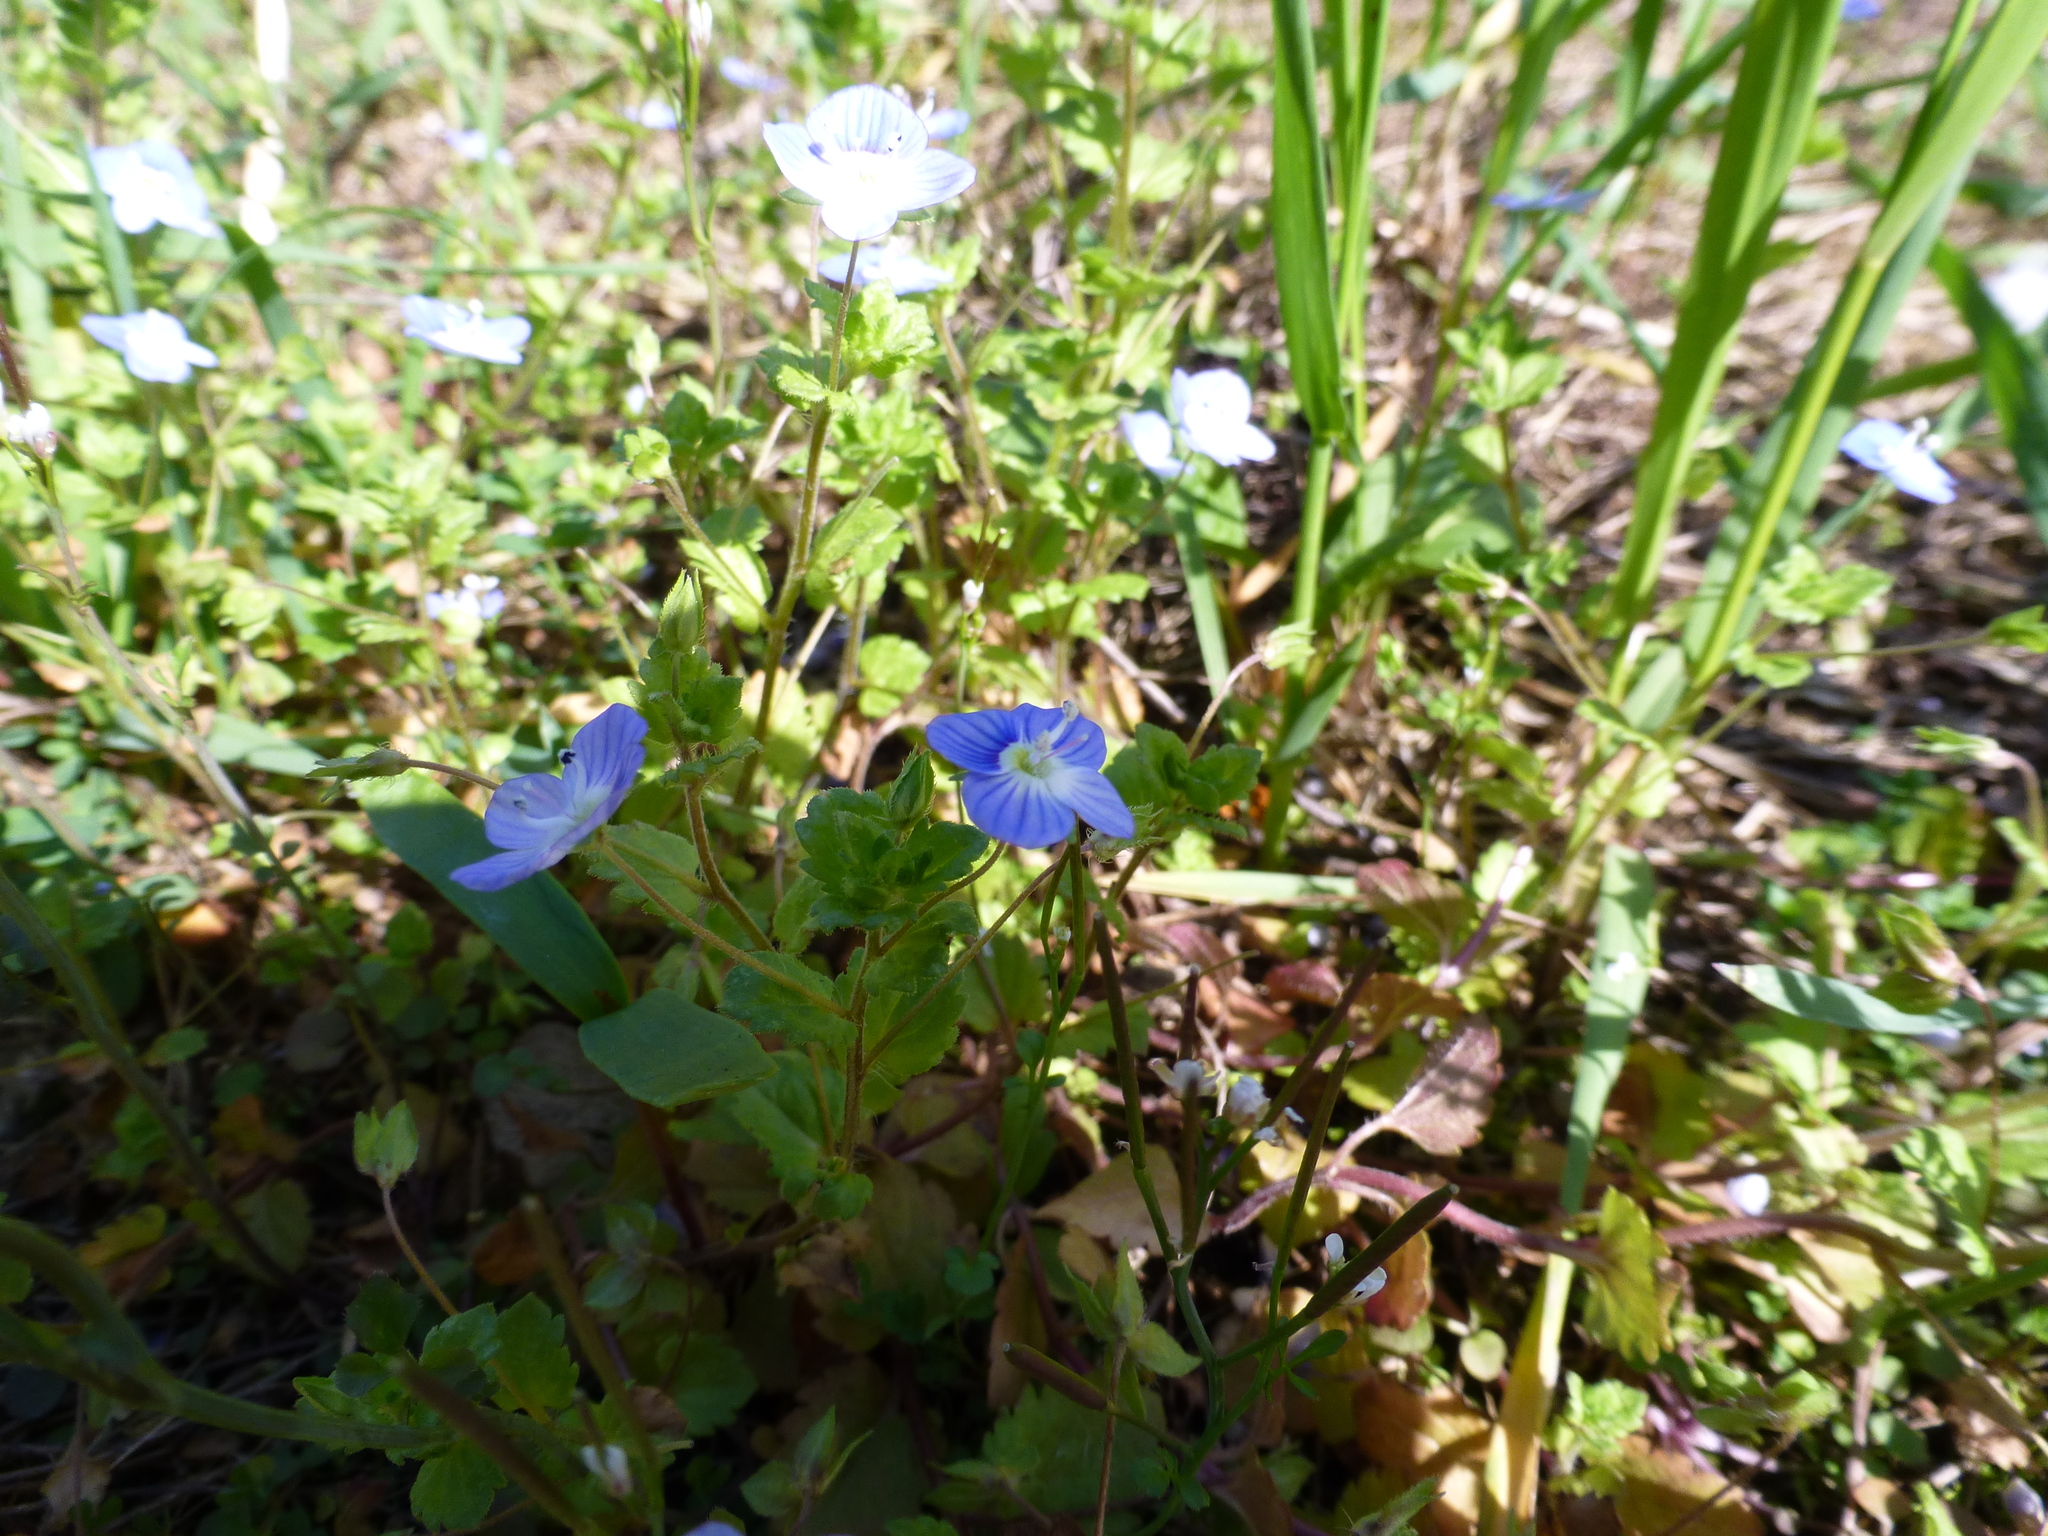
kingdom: Plantae
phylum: Tracheophyta
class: Magnoliopsida
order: Lamiales
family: Plantaginaceae
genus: Veronica
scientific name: Veronica persica
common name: Common field-speedwell
